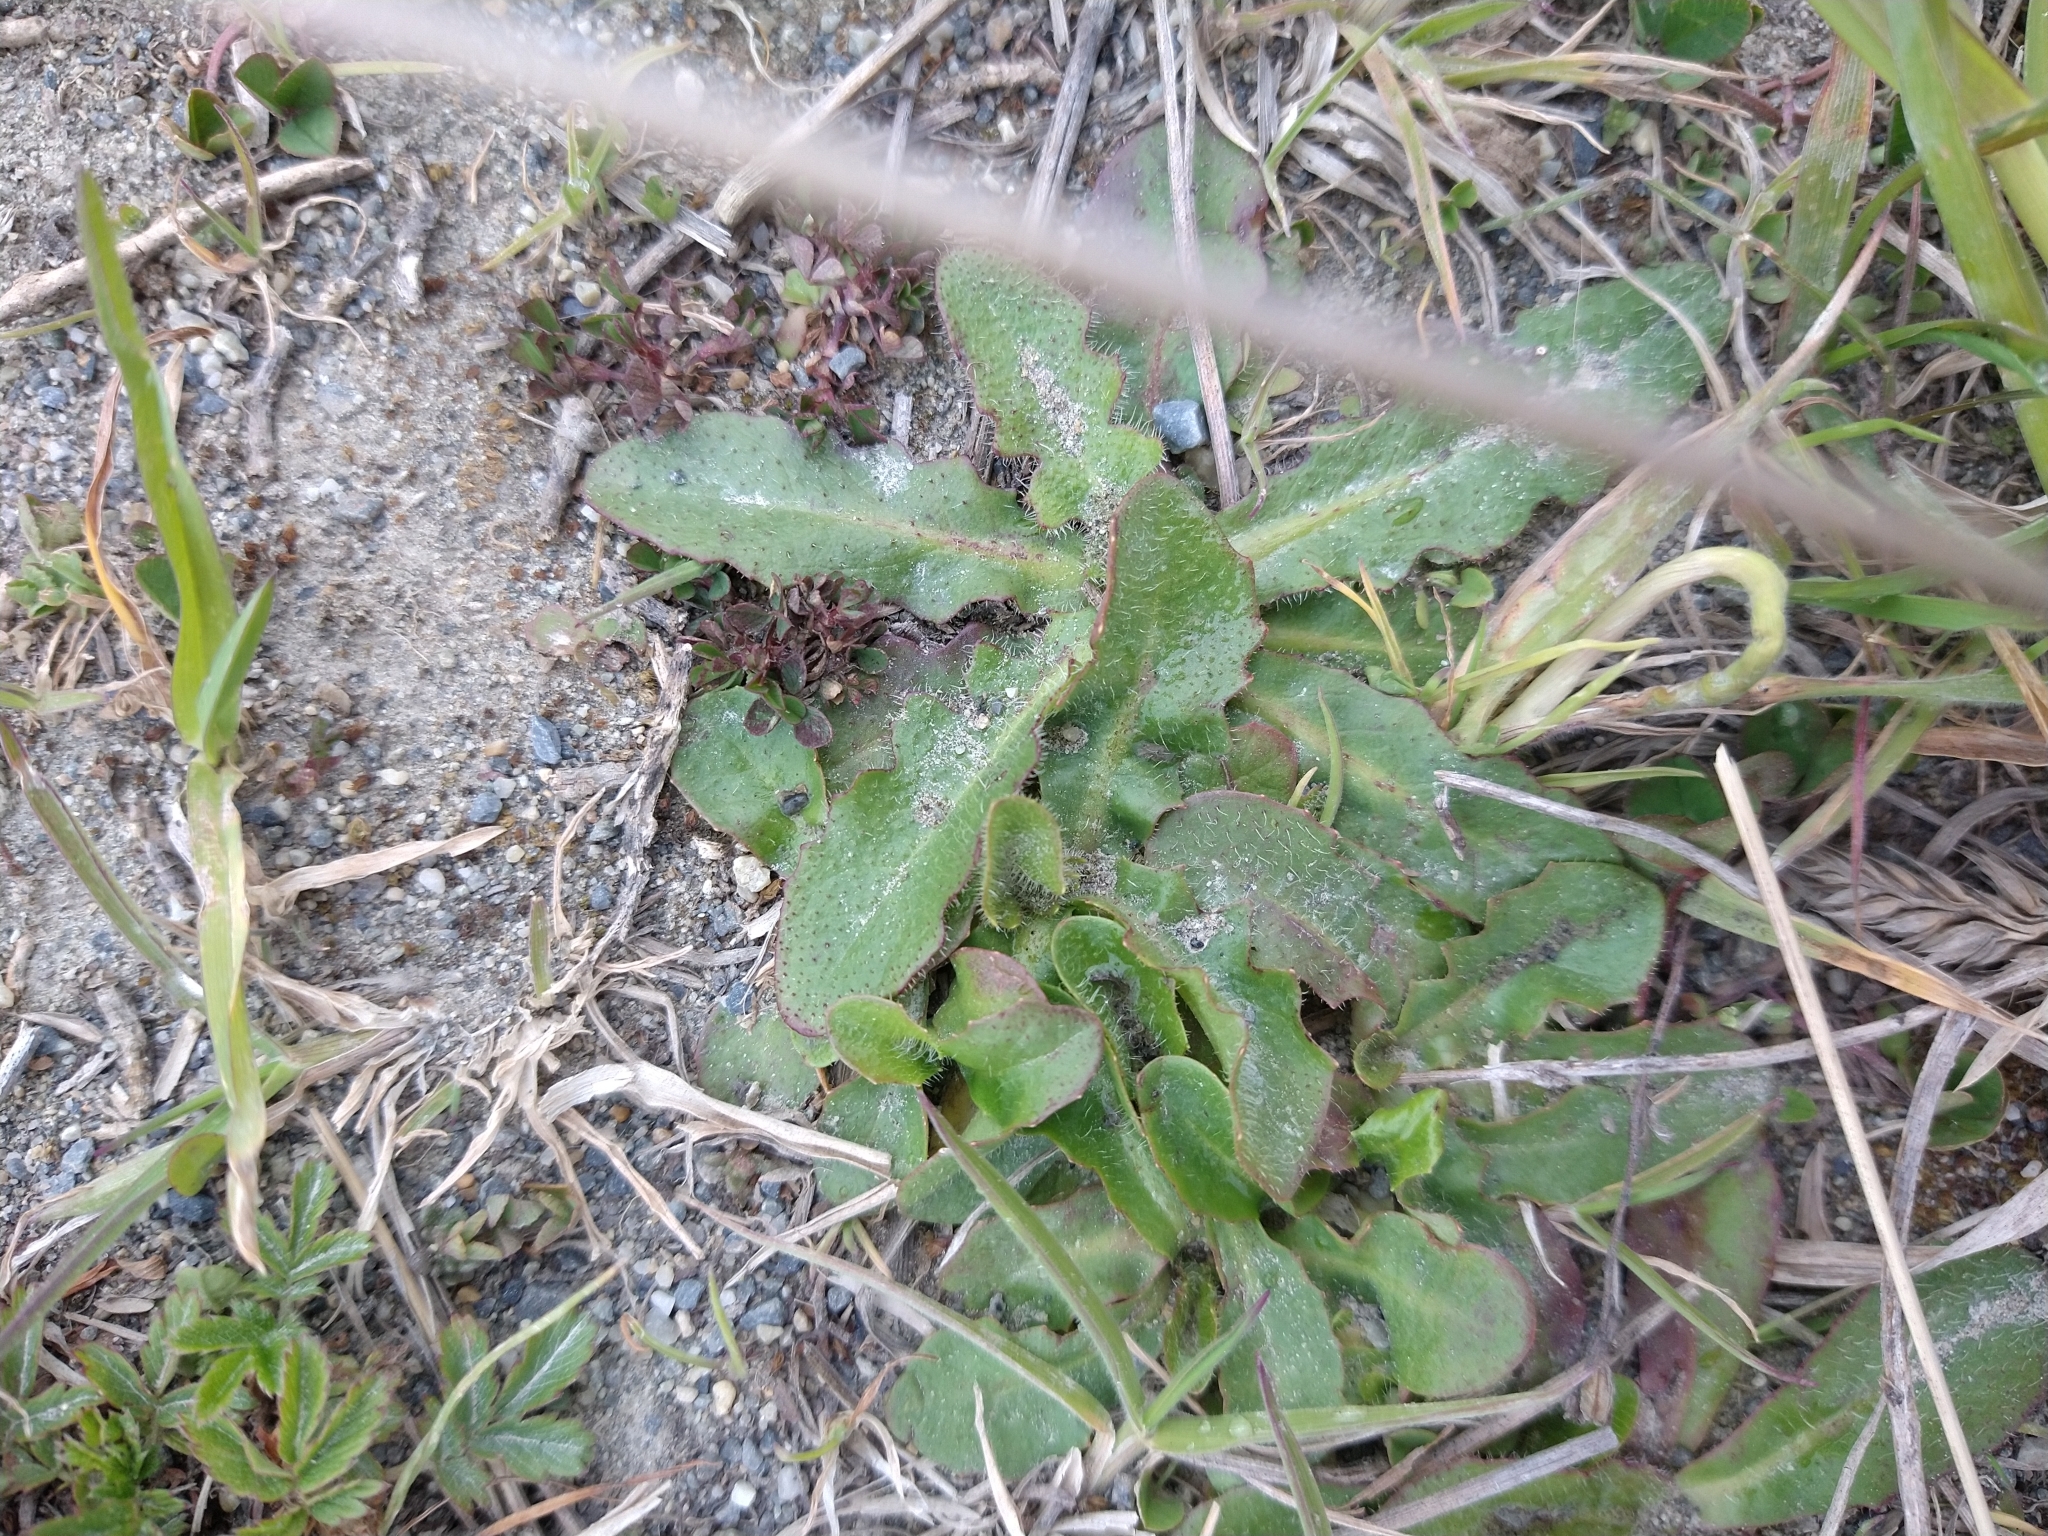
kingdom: Plantae
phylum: Tracheophyta
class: Magnoliopsida
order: Asterales
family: Asteraceae
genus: Hypochaeris
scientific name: Hypochaeris radicata
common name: Flatweed
